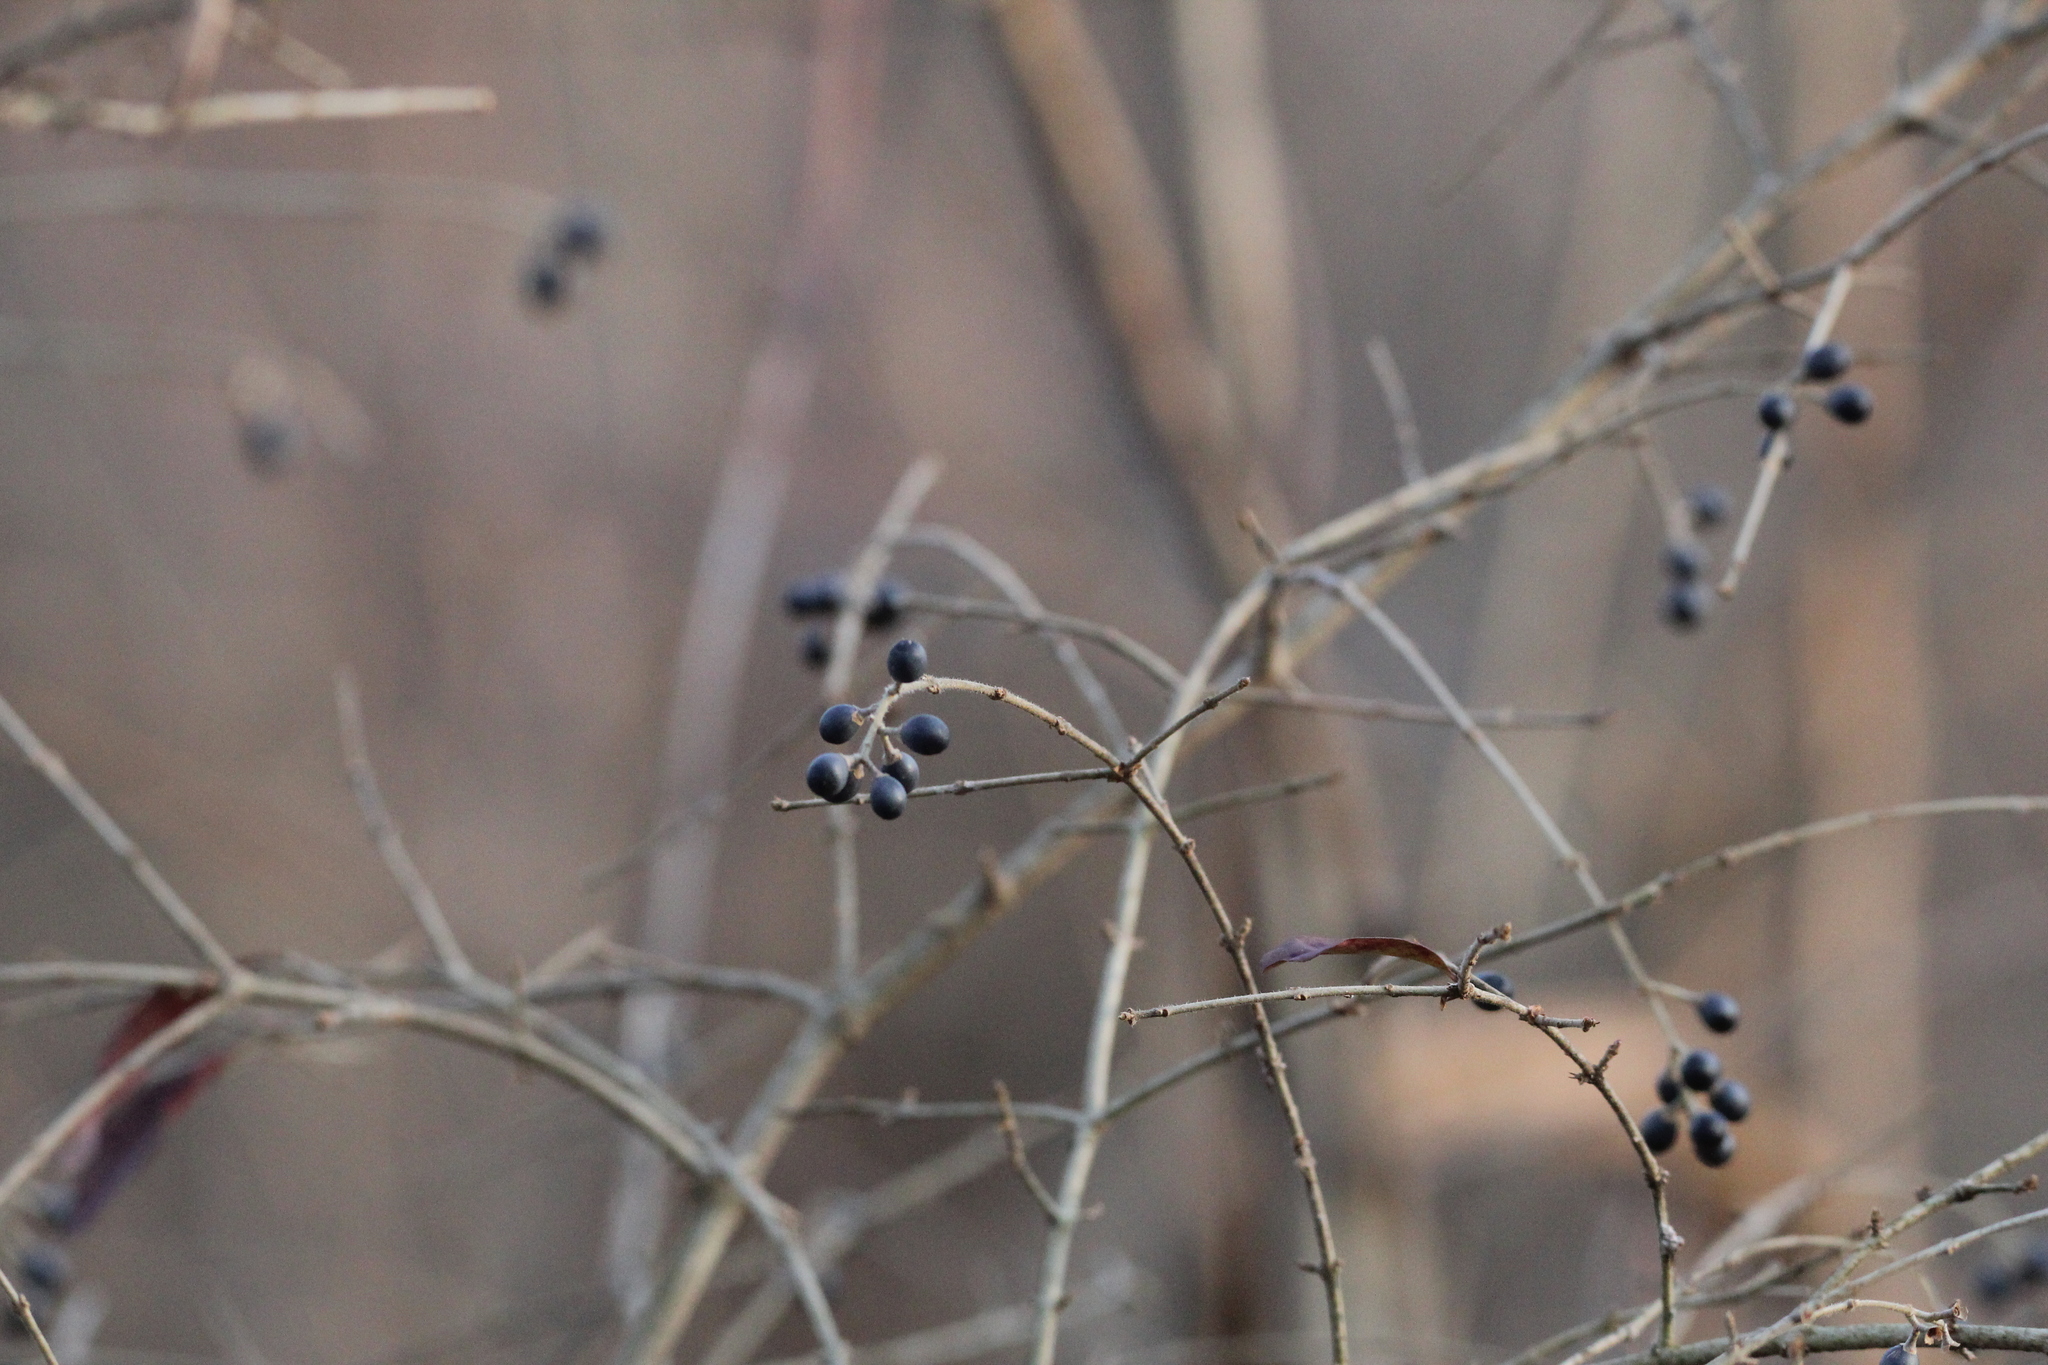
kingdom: Plantae
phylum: Tracheophyta
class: Magnoliopsida
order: Lamiales
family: Oleaceae
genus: Ligustrum
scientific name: Ligustrum vulgare
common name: Wild privet
